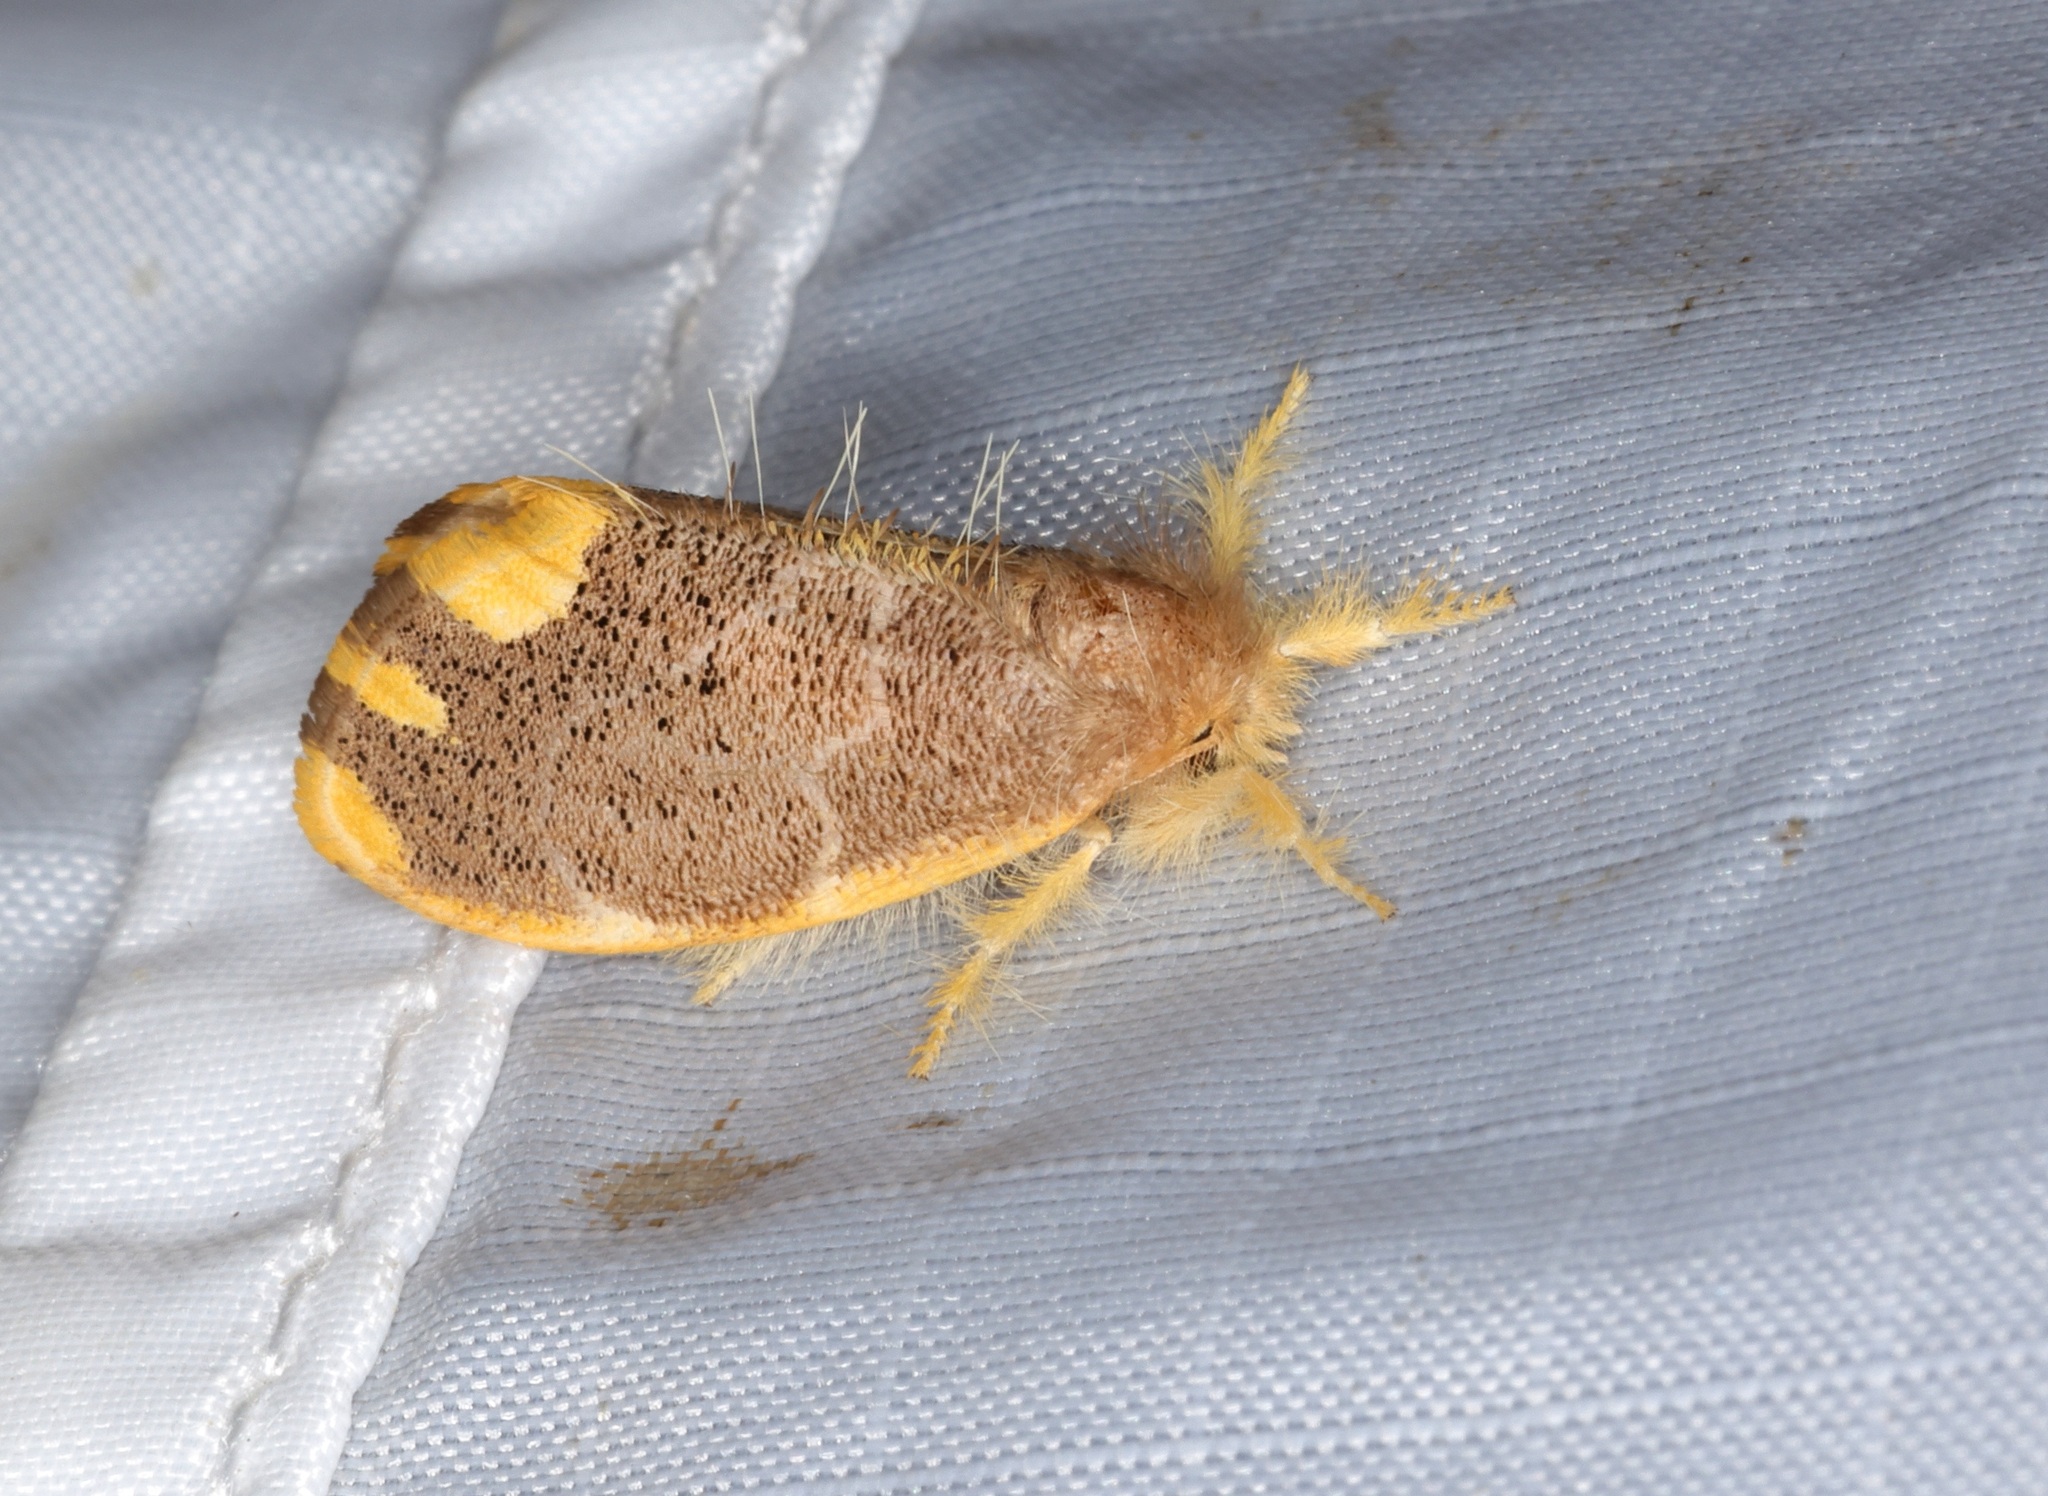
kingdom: Animalia
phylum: Arthropoda
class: Insecta
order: Lepidoptera
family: Erebidae
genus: Orvasca
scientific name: Orvasca subnotata
